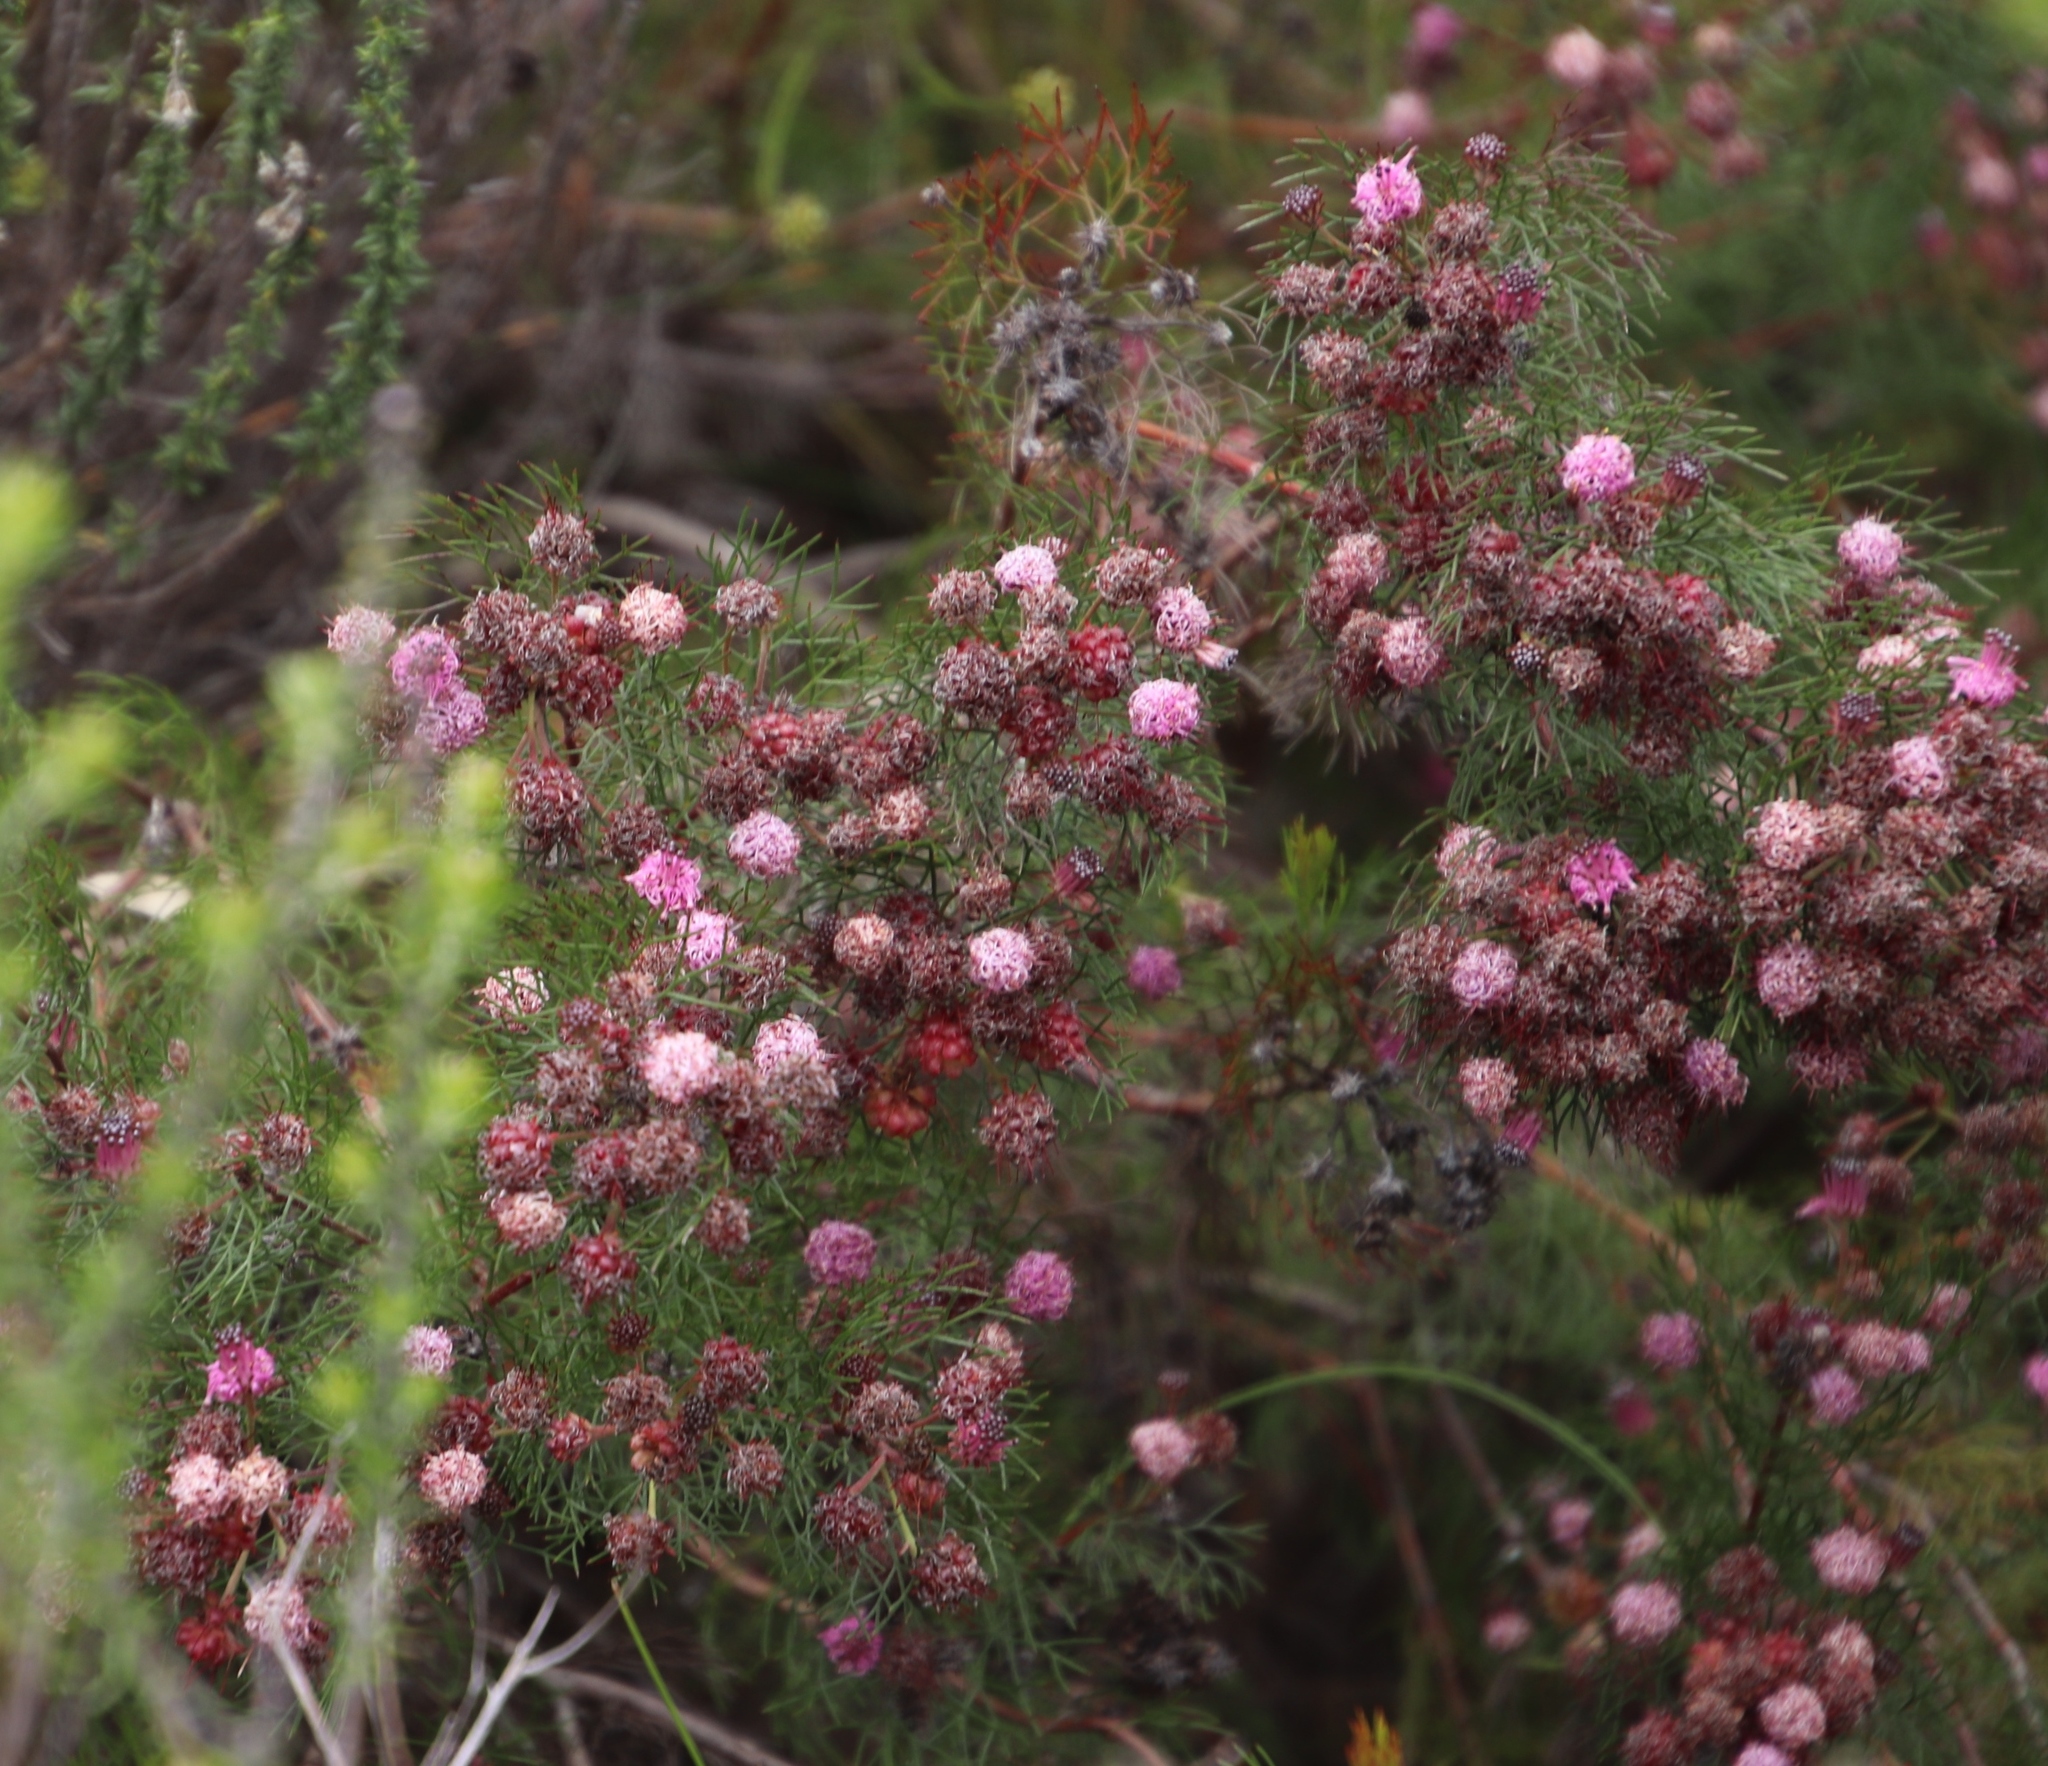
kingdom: Plantae
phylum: Tracheophyta
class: Magnoliopsida
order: Proteales
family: Proteaceae
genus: Serruria
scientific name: Serruria fasciflora
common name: Common pin spiderhead
